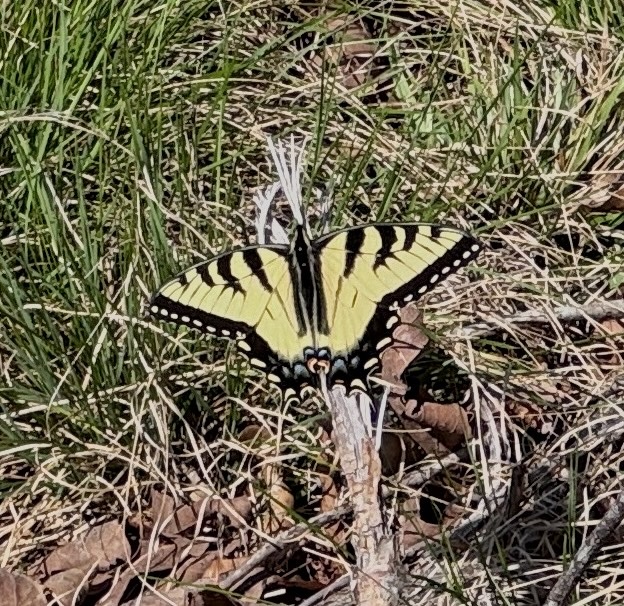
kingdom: Animalia
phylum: Arthropoda
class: Insecta
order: Lepidoptera
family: Papilionidae
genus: Papilio
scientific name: Papilio glaucus
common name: Tiger swallowtail
